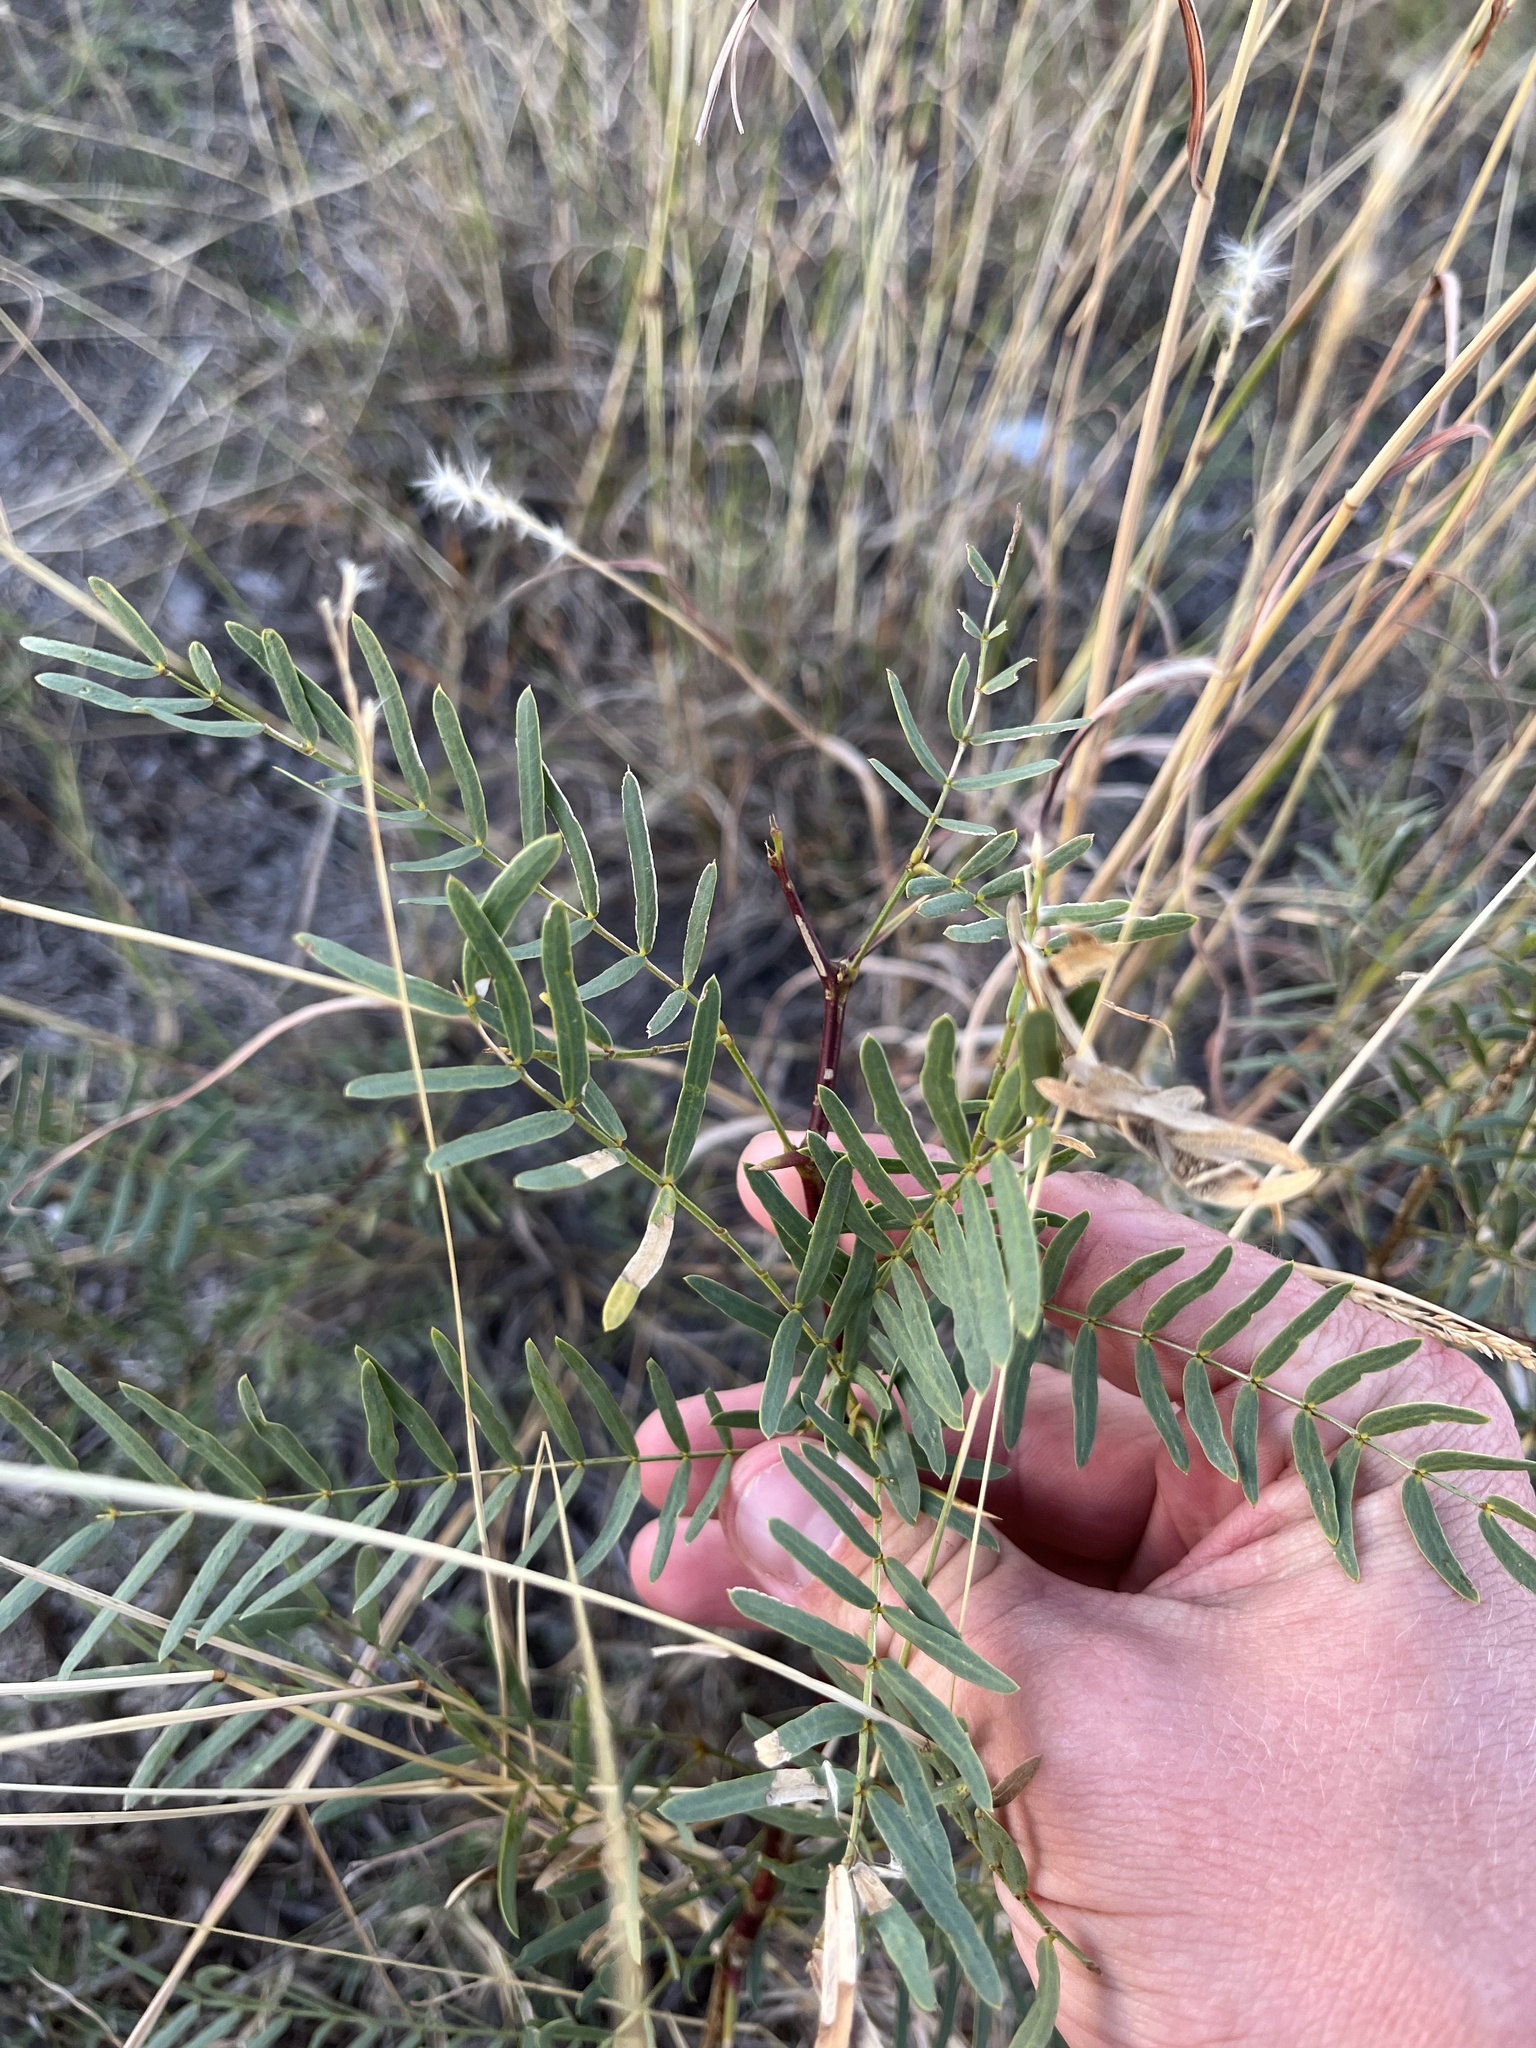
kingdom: Plantae
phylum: Tracheophyta
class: Magnoliopsida
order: Fabales
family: Fabaceae
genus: Prosopis
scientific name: Prosopis glandulosa
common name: Honey mesquite
